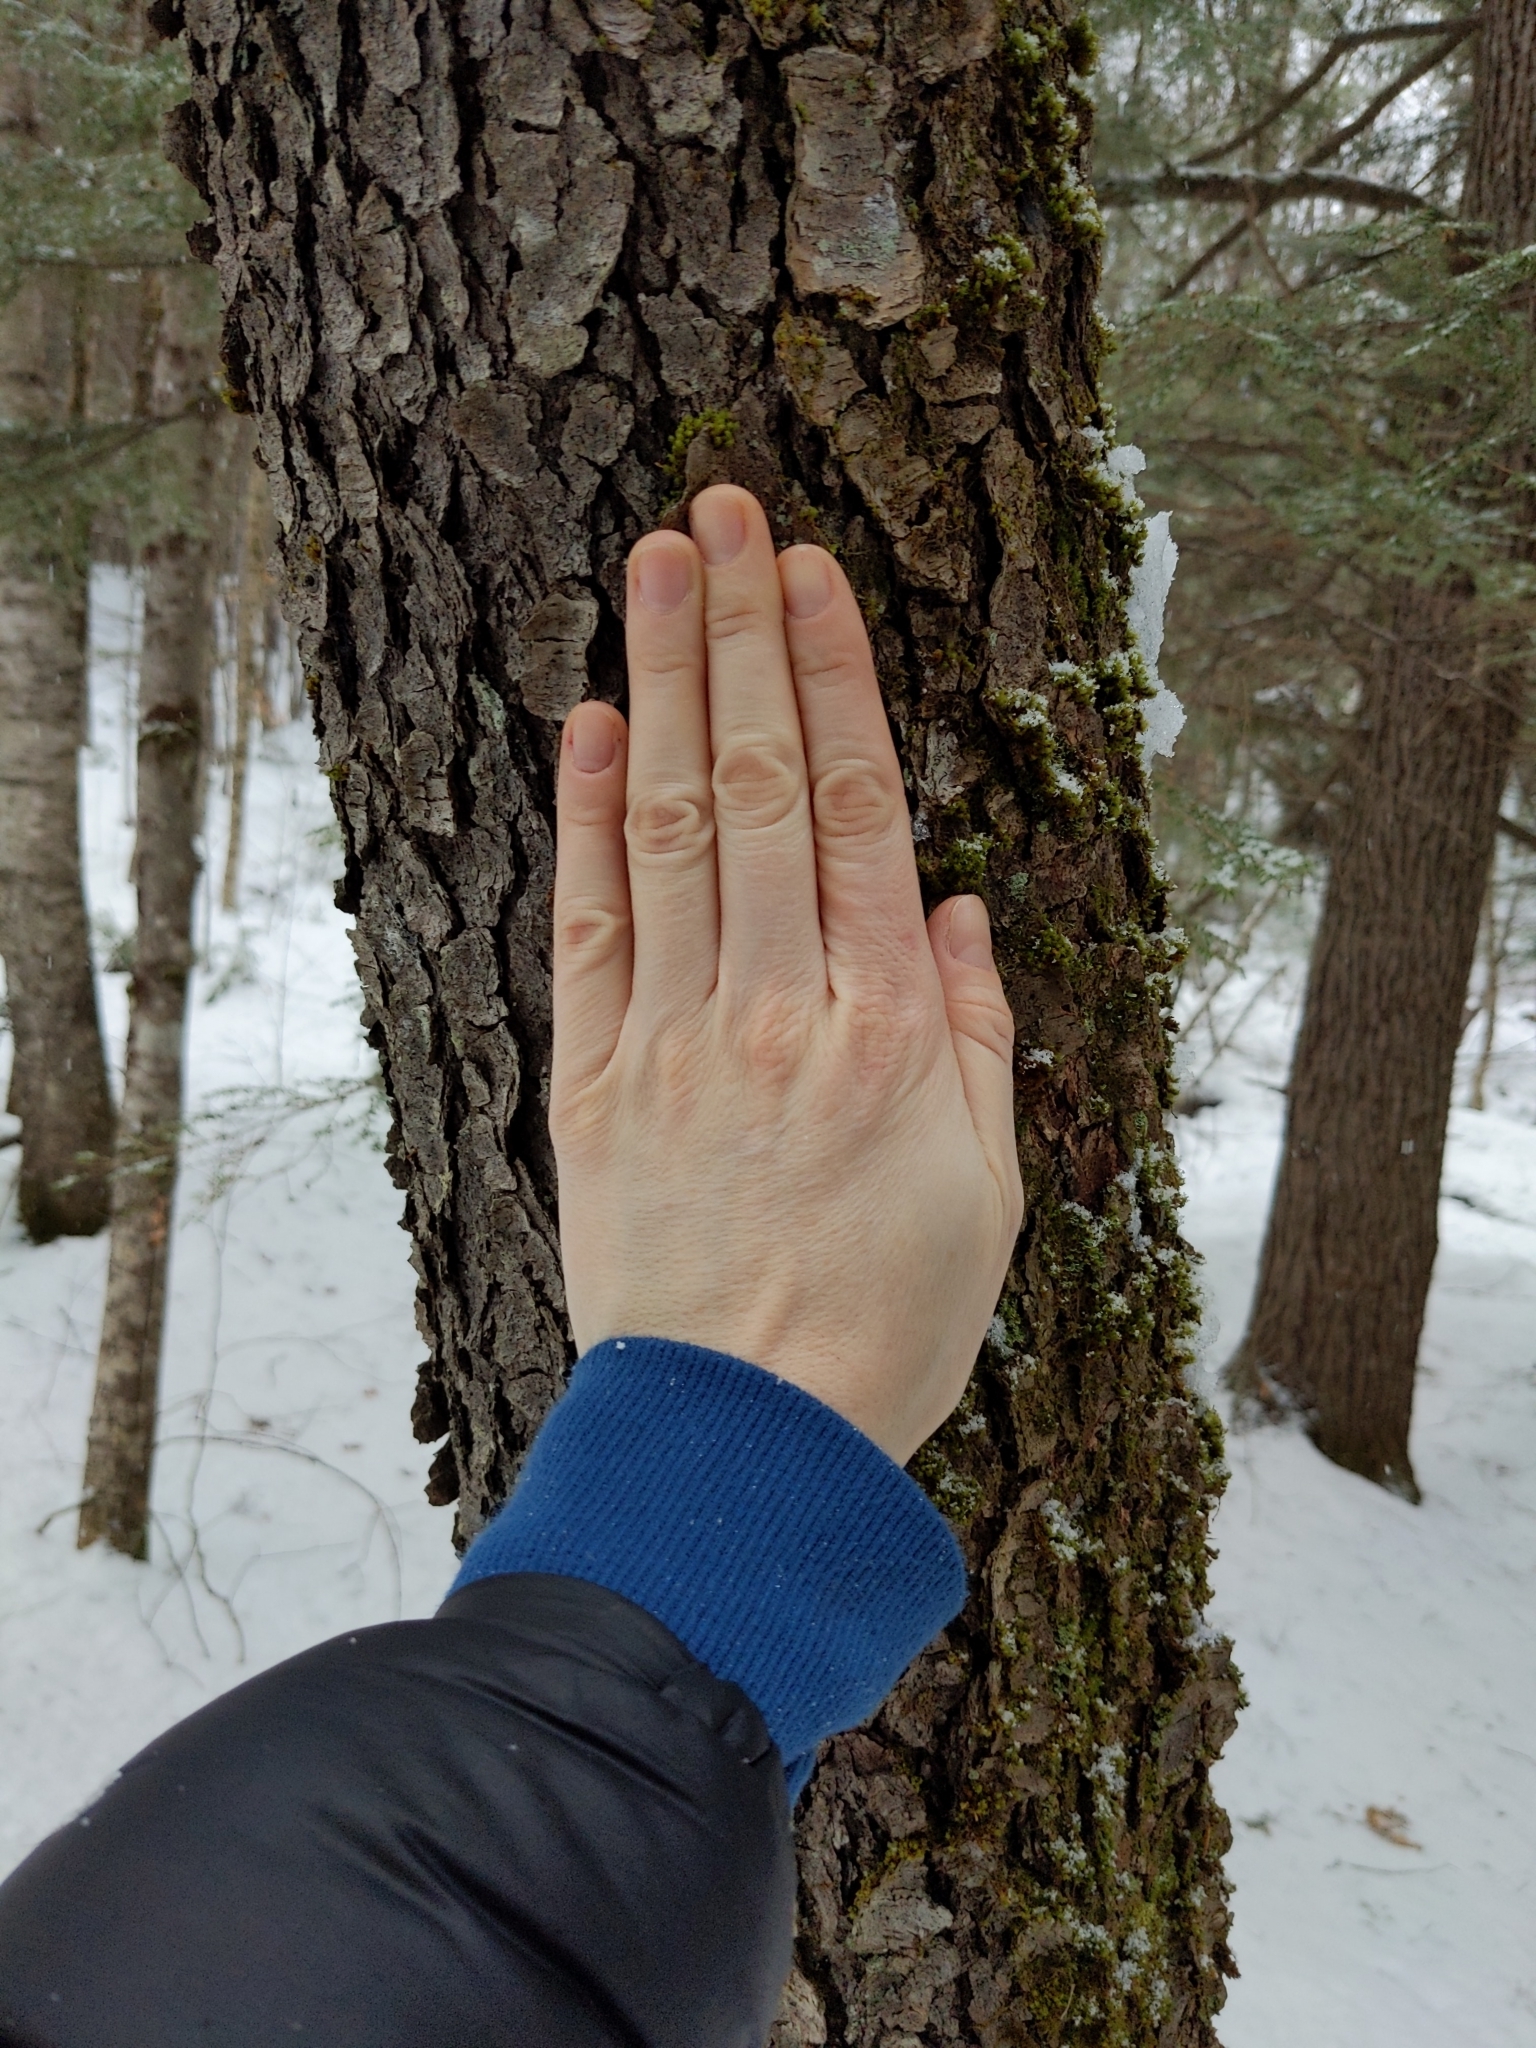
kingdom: Plantae
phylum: Tracheophyta
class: Magnoliopsida
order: Rosales
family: Rosaceae
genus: Prunus
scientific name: Prunus serotina
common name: Black cherry
